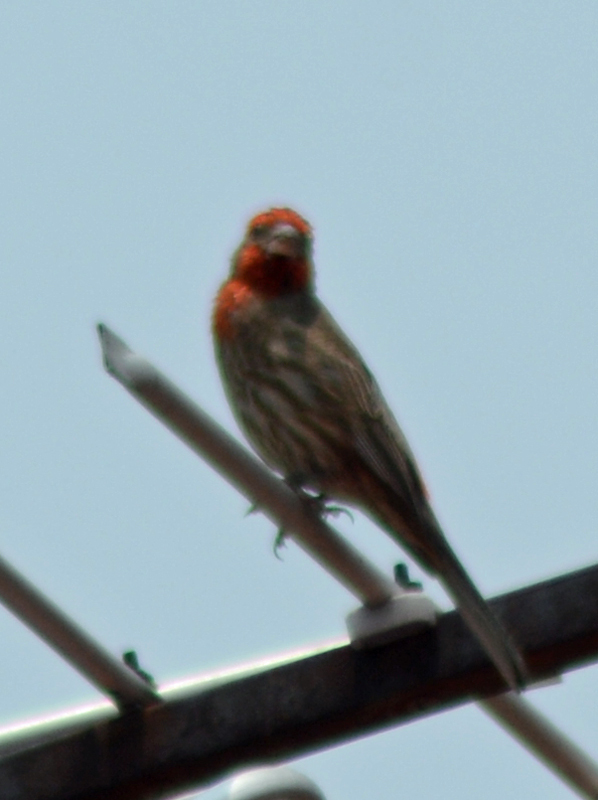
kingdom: Animalia
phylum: Chordata
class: Aves
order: Passeriformes
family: Fringillidae
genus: Haemorhous
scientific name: Haemorhous mexicanus
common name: House finch
